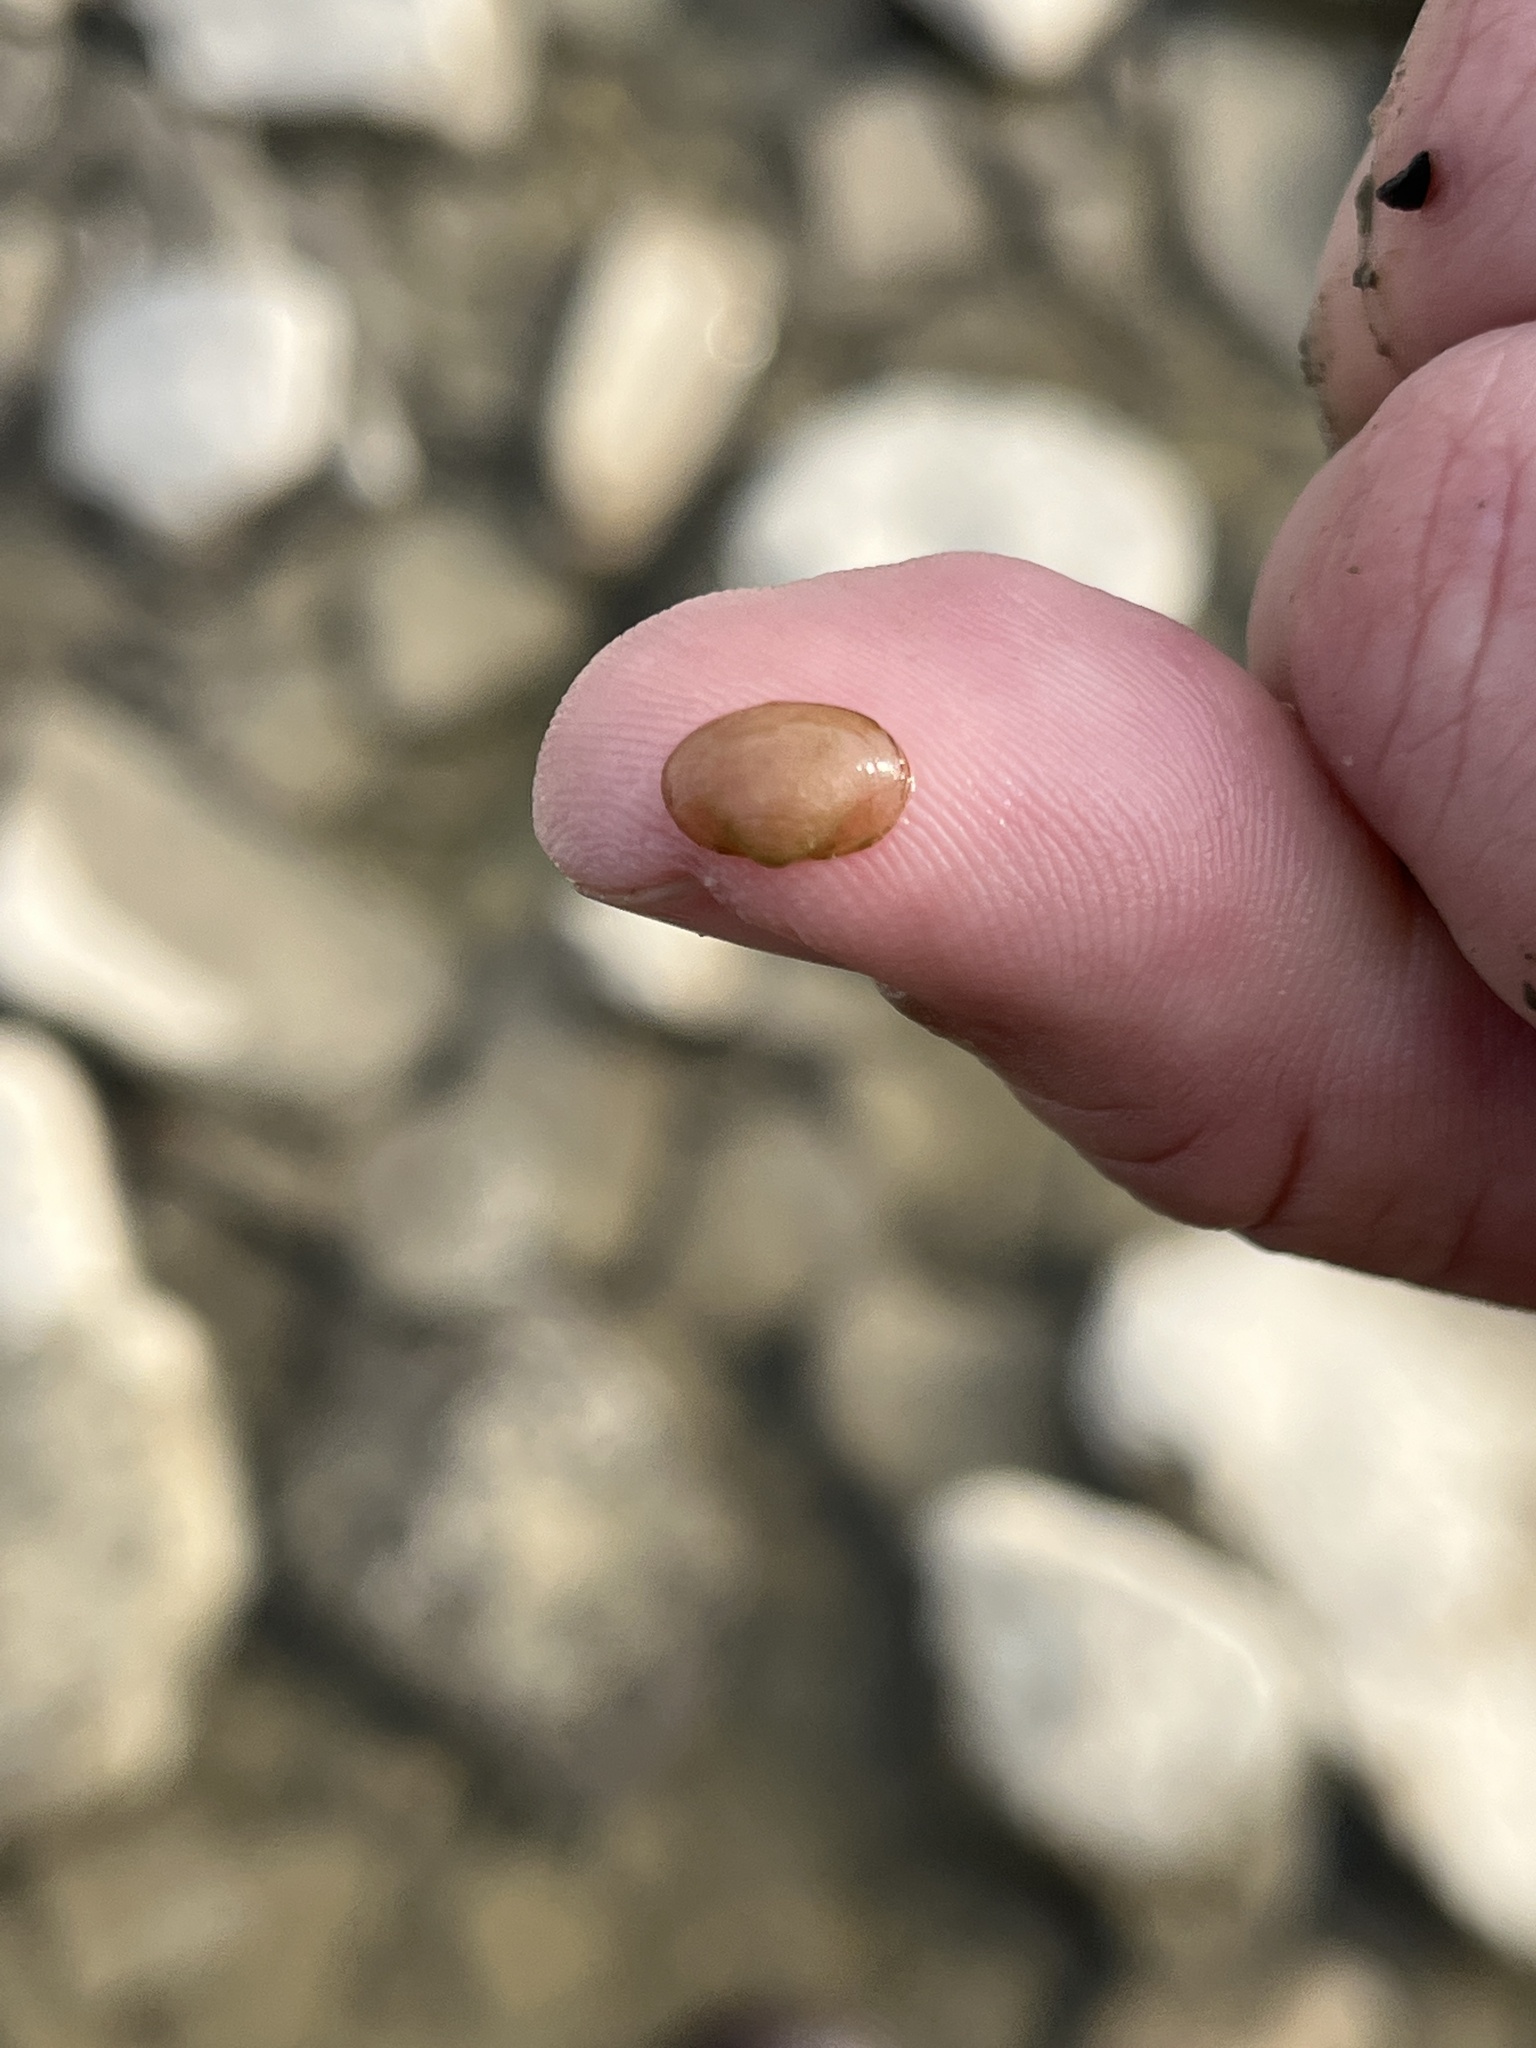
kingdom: Animalia
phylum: Mollusca
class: Bivalvia
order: Sphaeriida
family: Sphaeriidae
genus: Musculium
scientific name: Musculium transversum
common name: Oblong orb mussel
